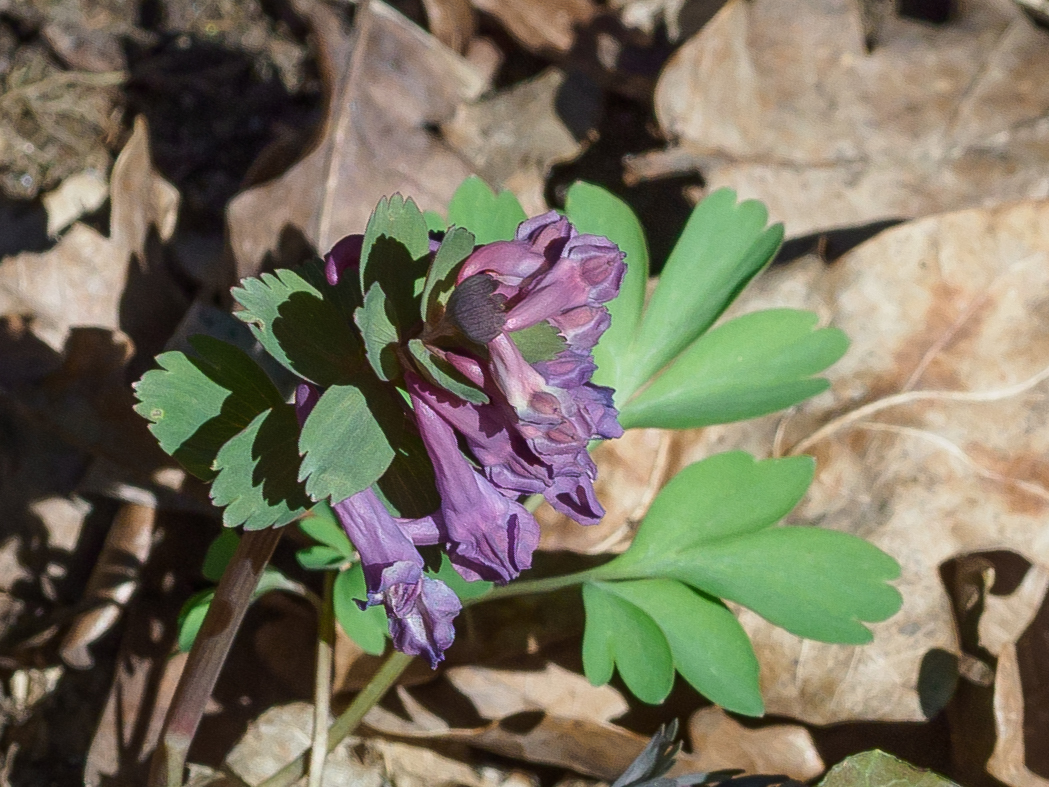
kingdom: Plantae
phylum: Tracheophyta
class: Magnoliopsida
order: Ranunculales
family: Papaveraceae
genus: Corydalis
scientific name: Corydalis solida
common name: Bird-in-a-bush
